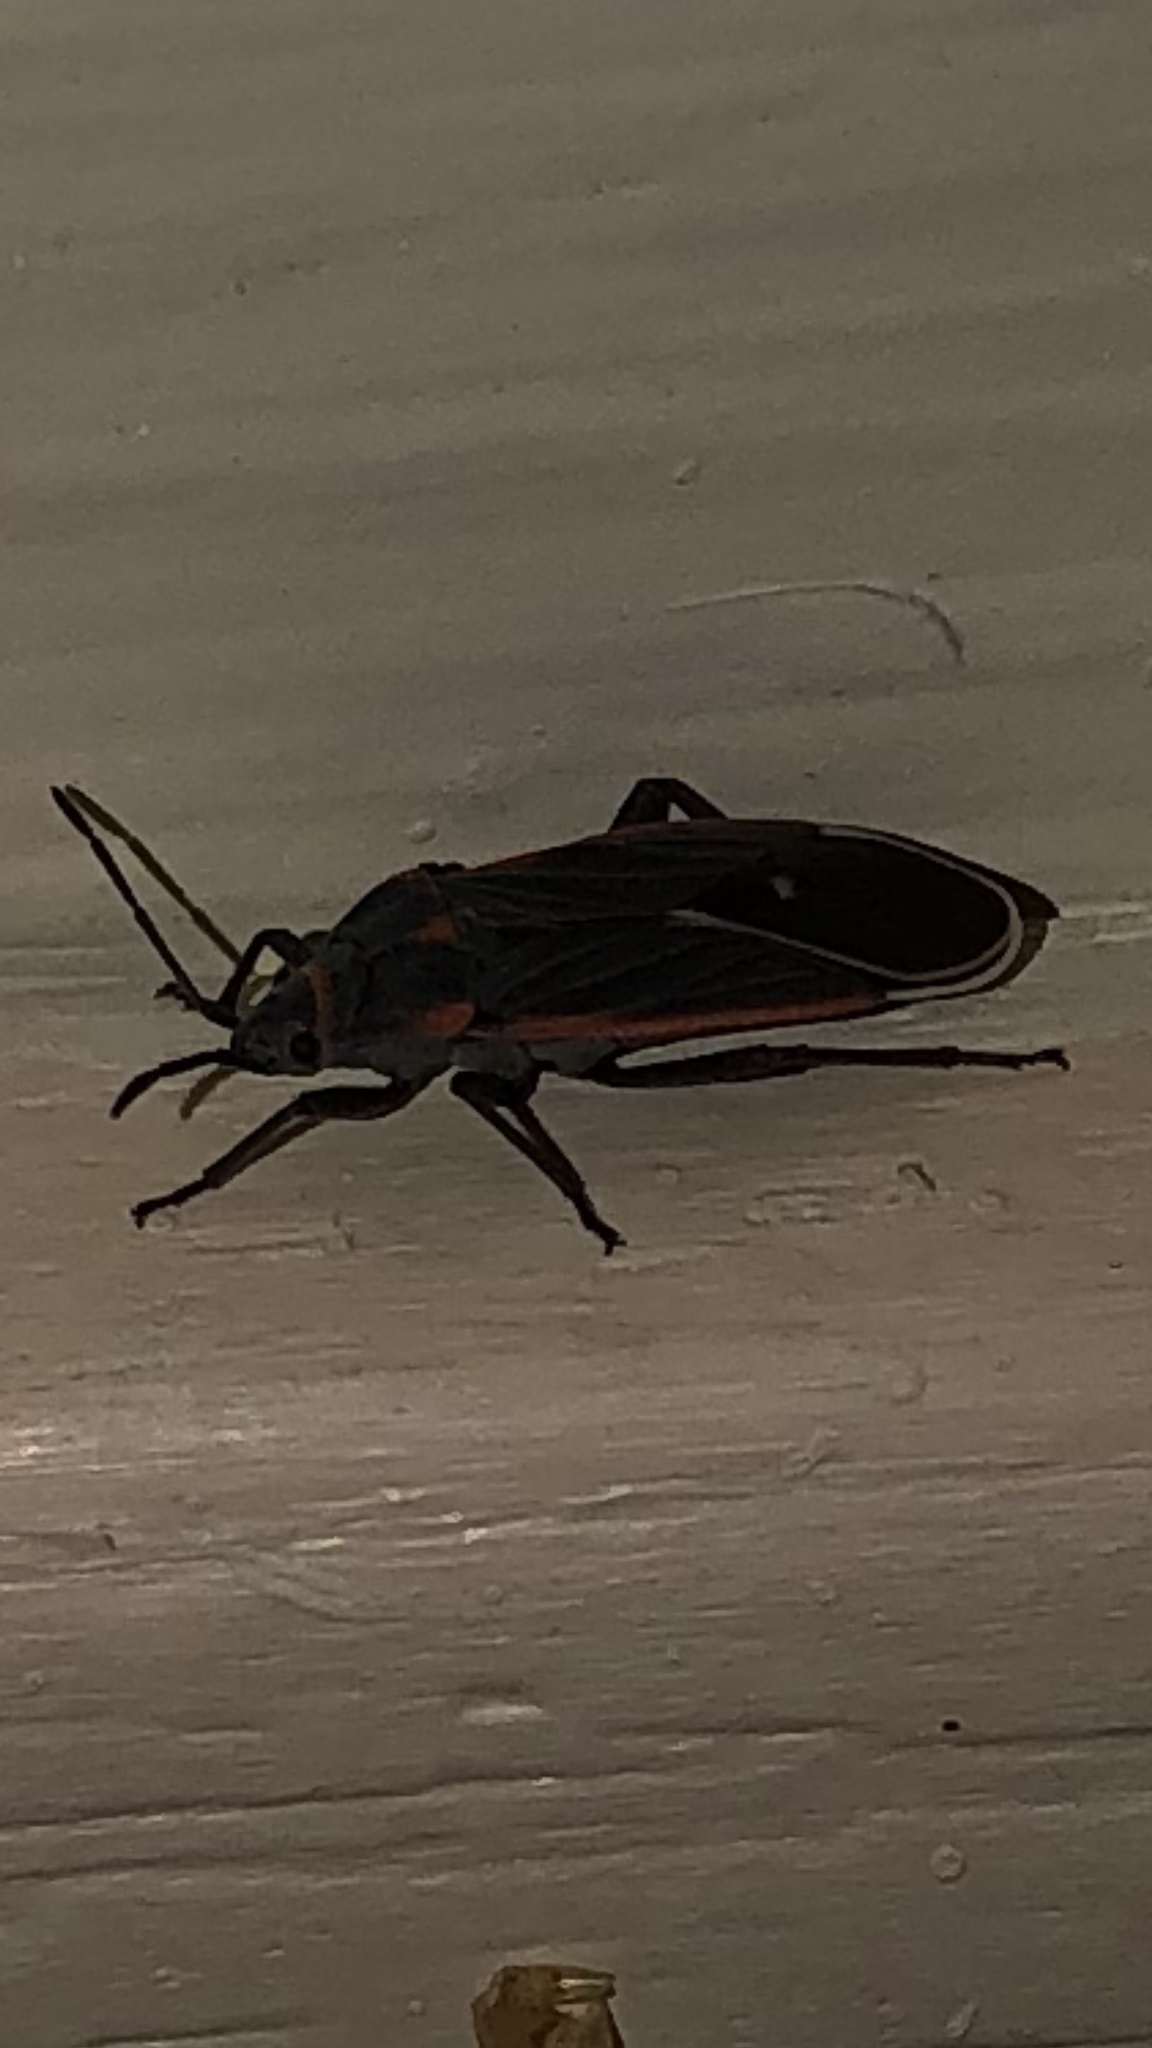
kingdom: Animalia
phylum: Arthropoda
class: Insecta
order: Hemiptera
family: Lygaeidae
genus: Melacoryphus
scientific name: Melacoryphus lateralis
